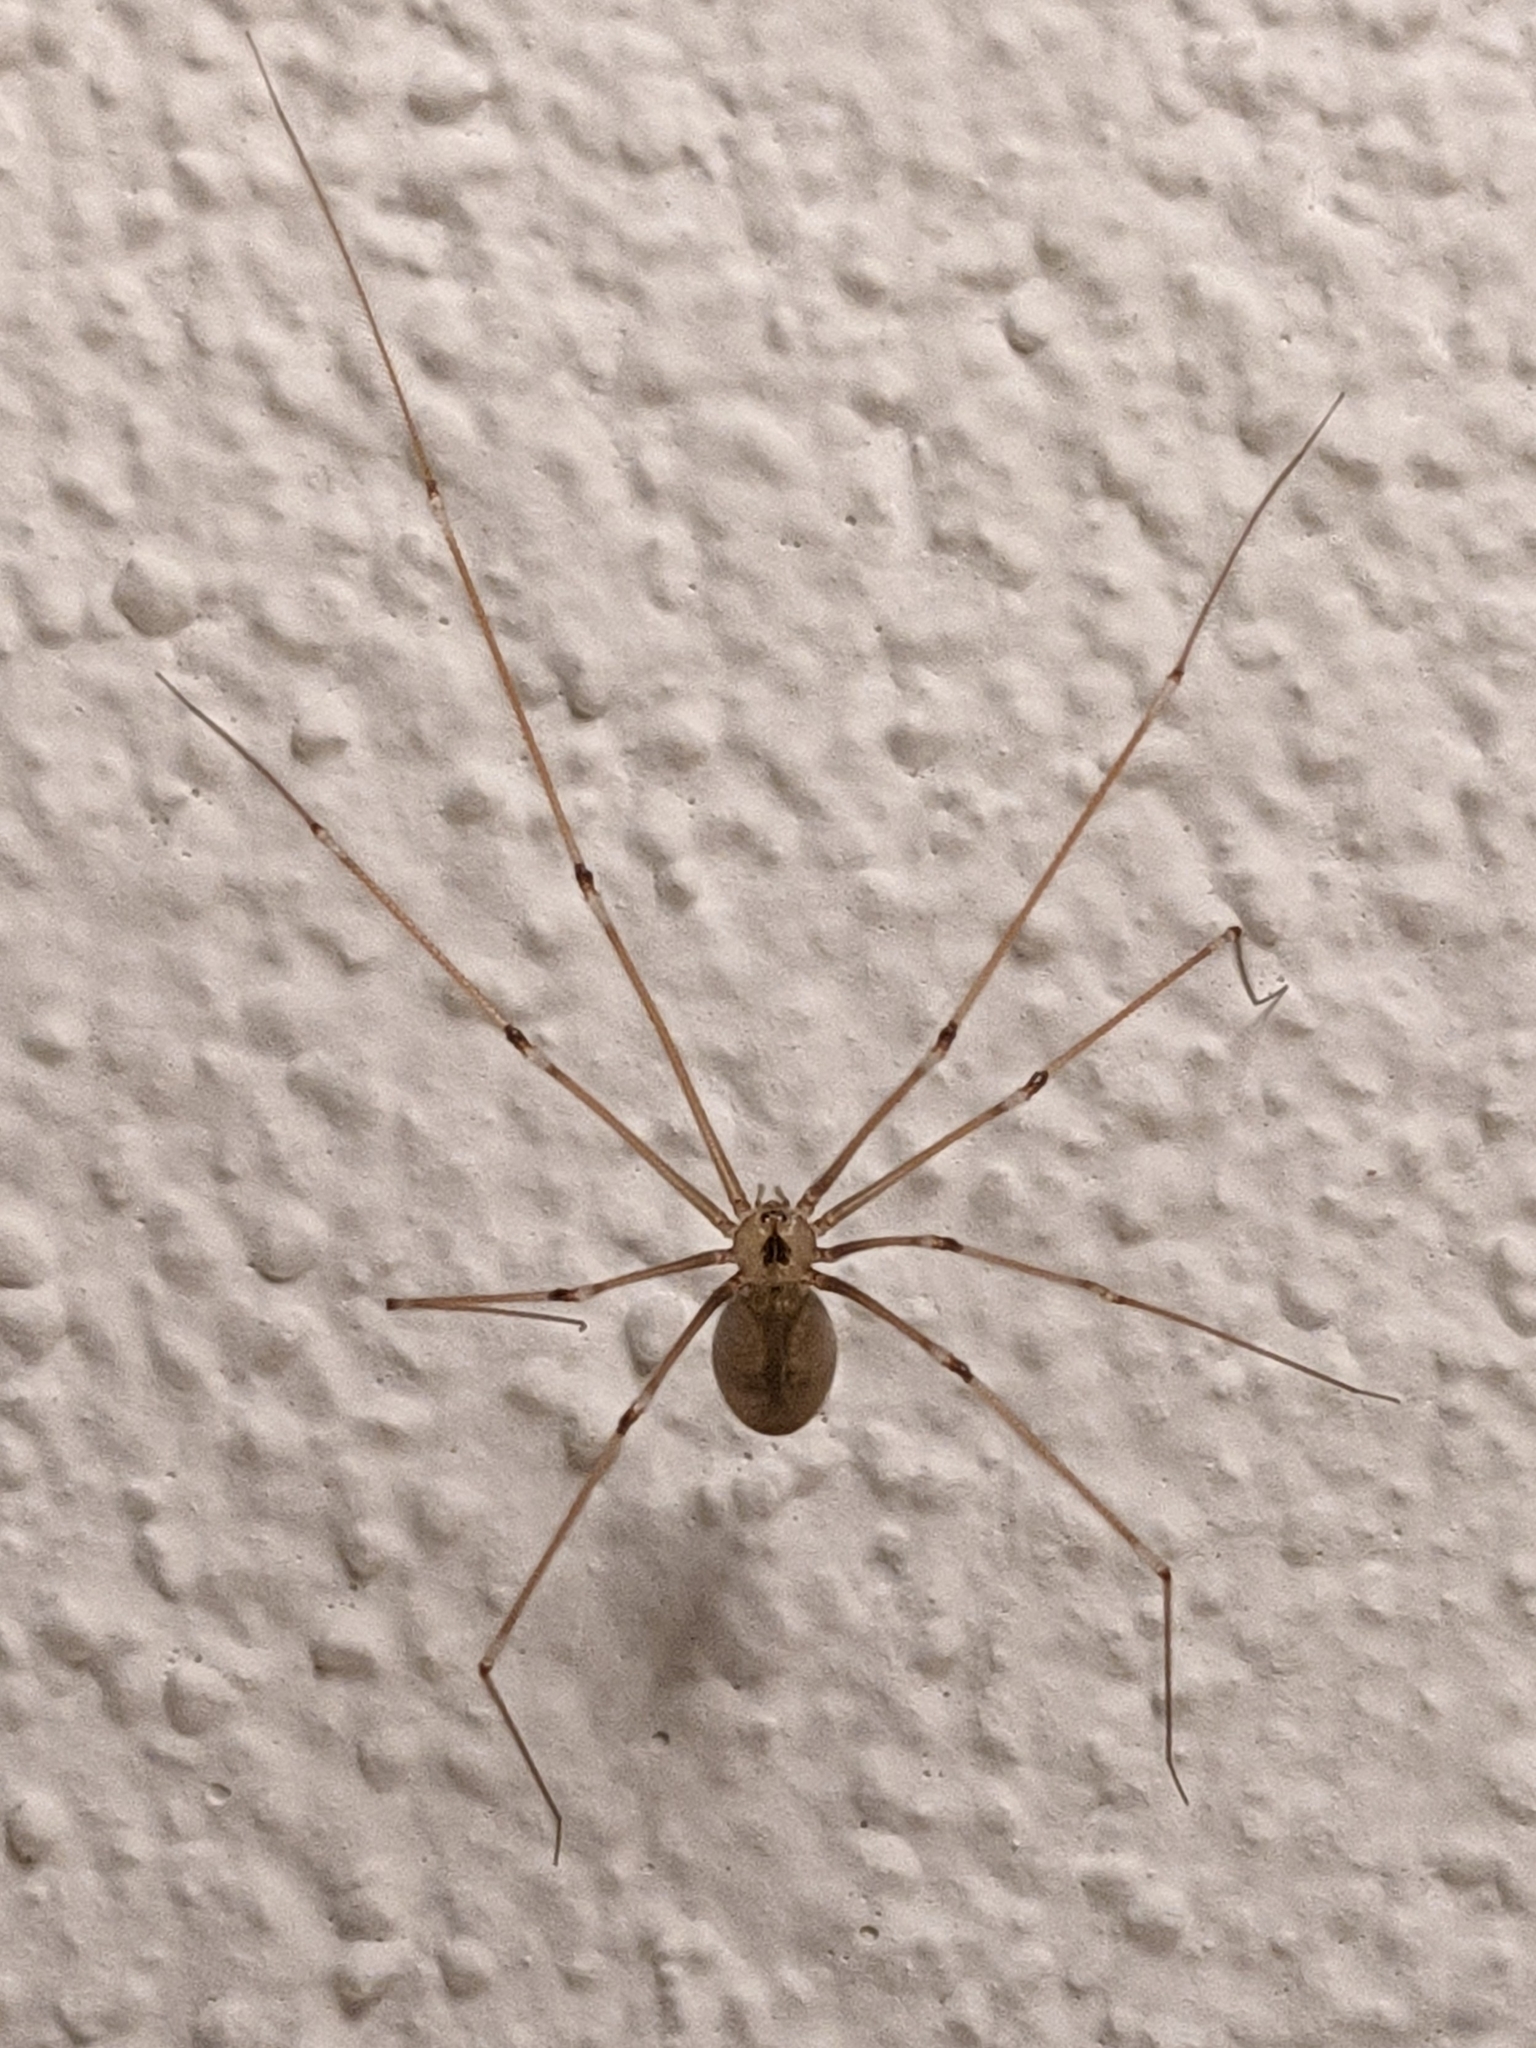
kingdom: Animalia
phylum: Arthropoda
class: Arachnida
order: Araneae
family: Pholcidae
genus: Pholcus
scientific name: Pholcus phalangioides
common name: Longbodied cellar spider
